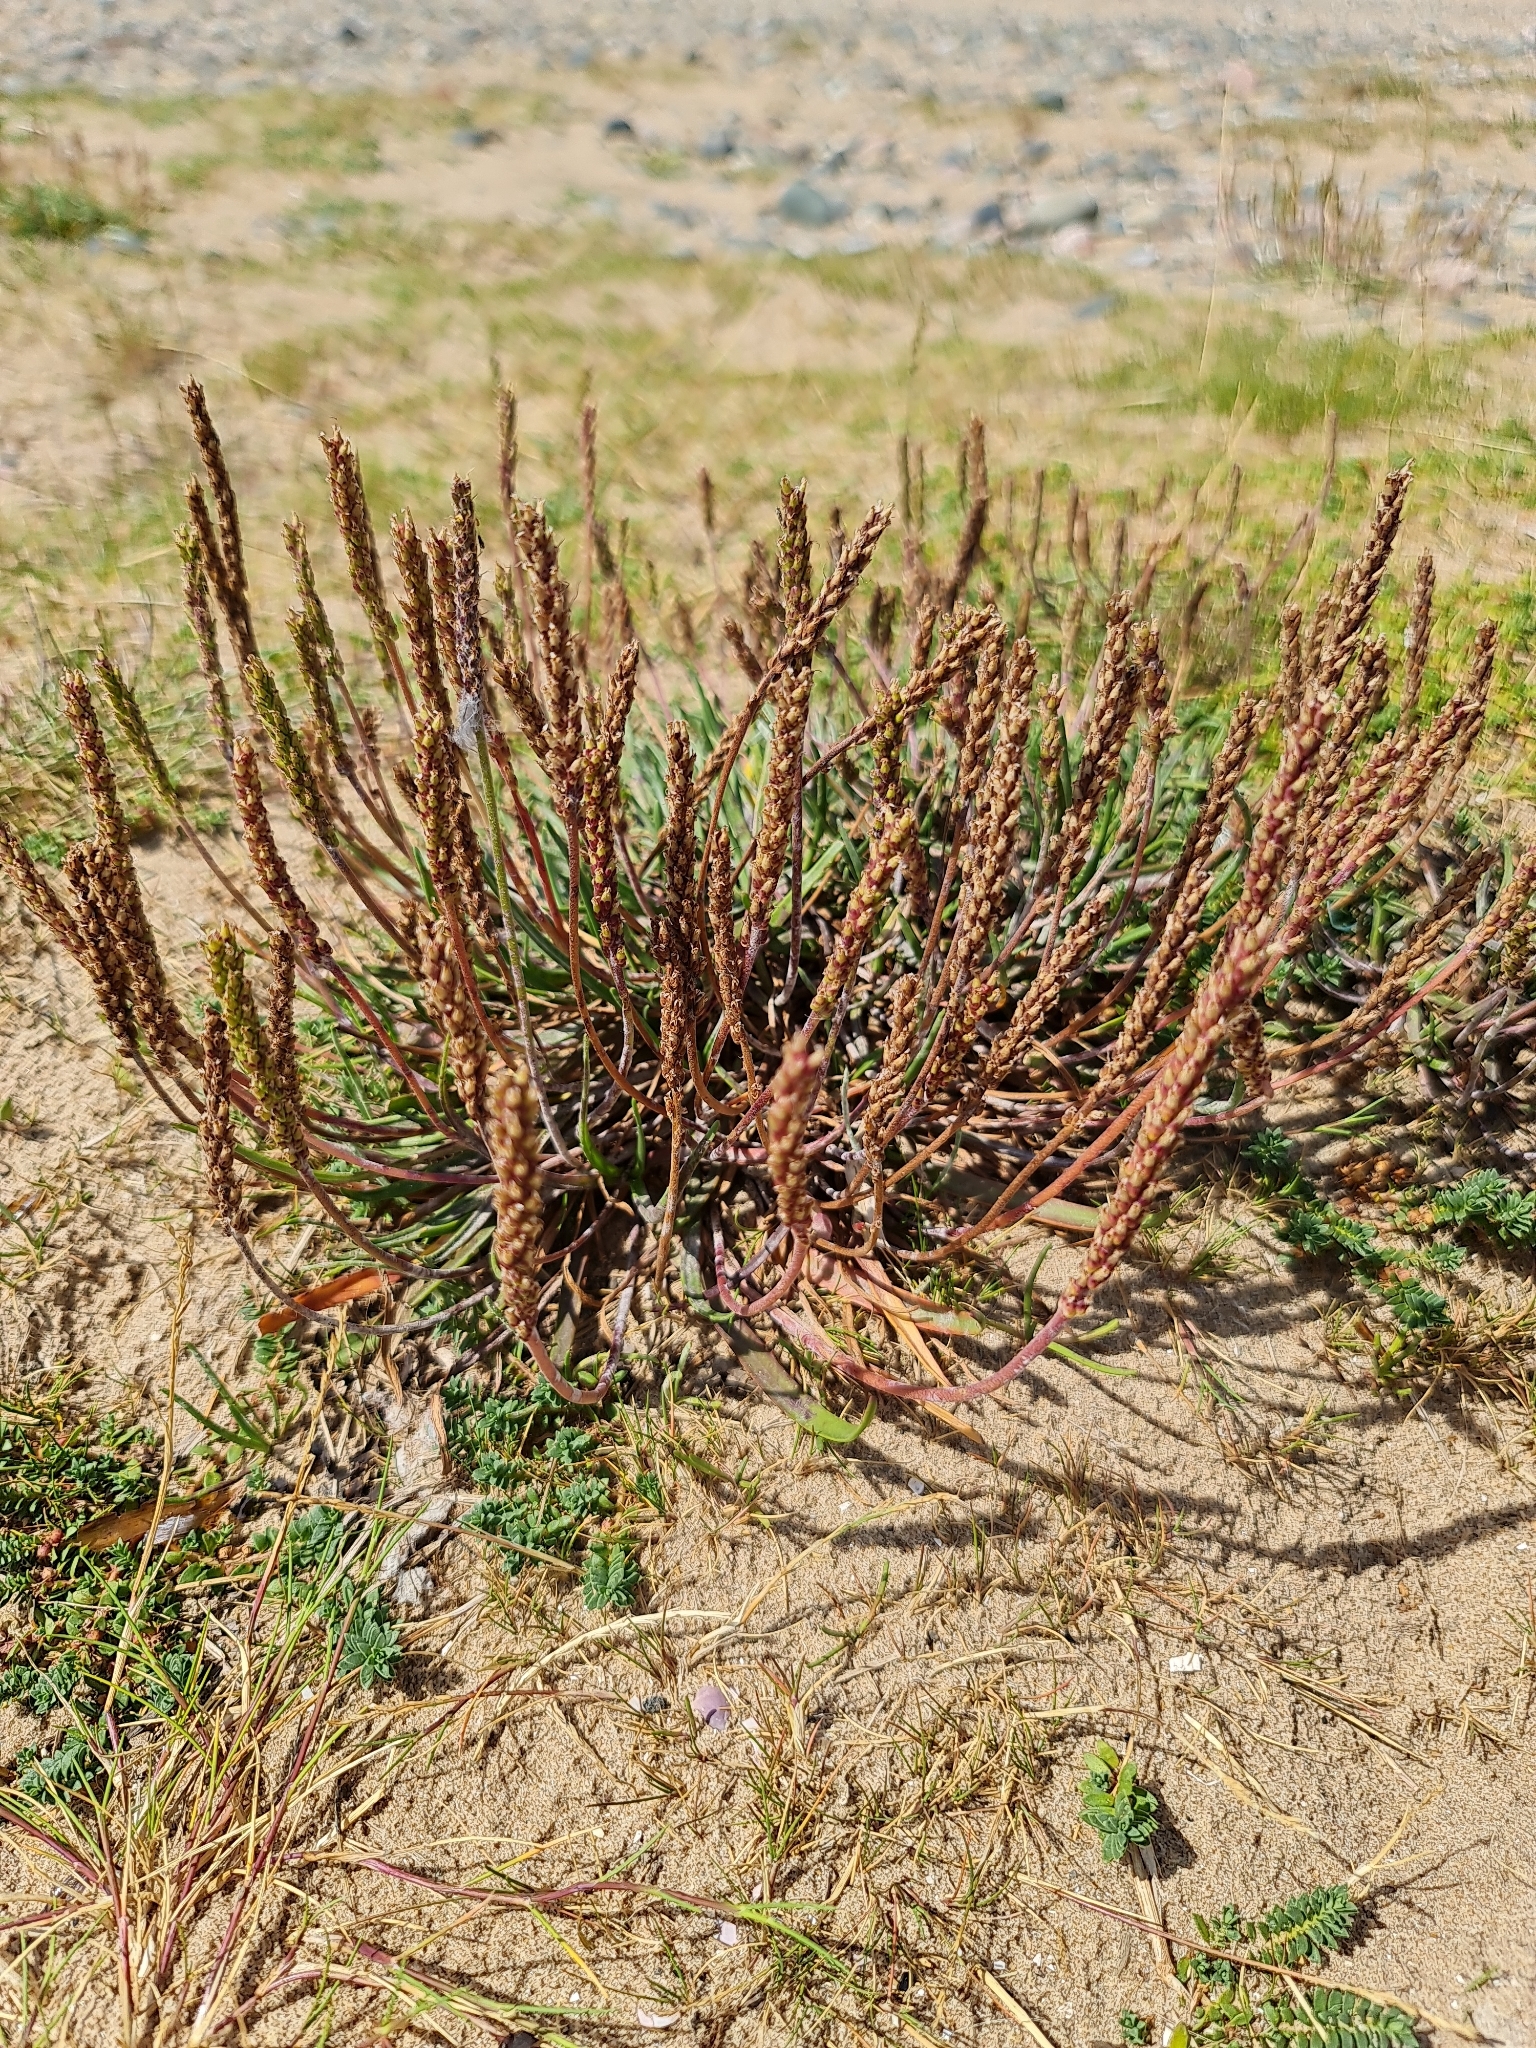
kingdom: Plantae
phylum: Tracheophyta
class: Magnoliopsida
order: Lamiales
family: Plantaginaceae
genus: Plantago
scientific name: Plantago maritima
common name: Sea plantain
